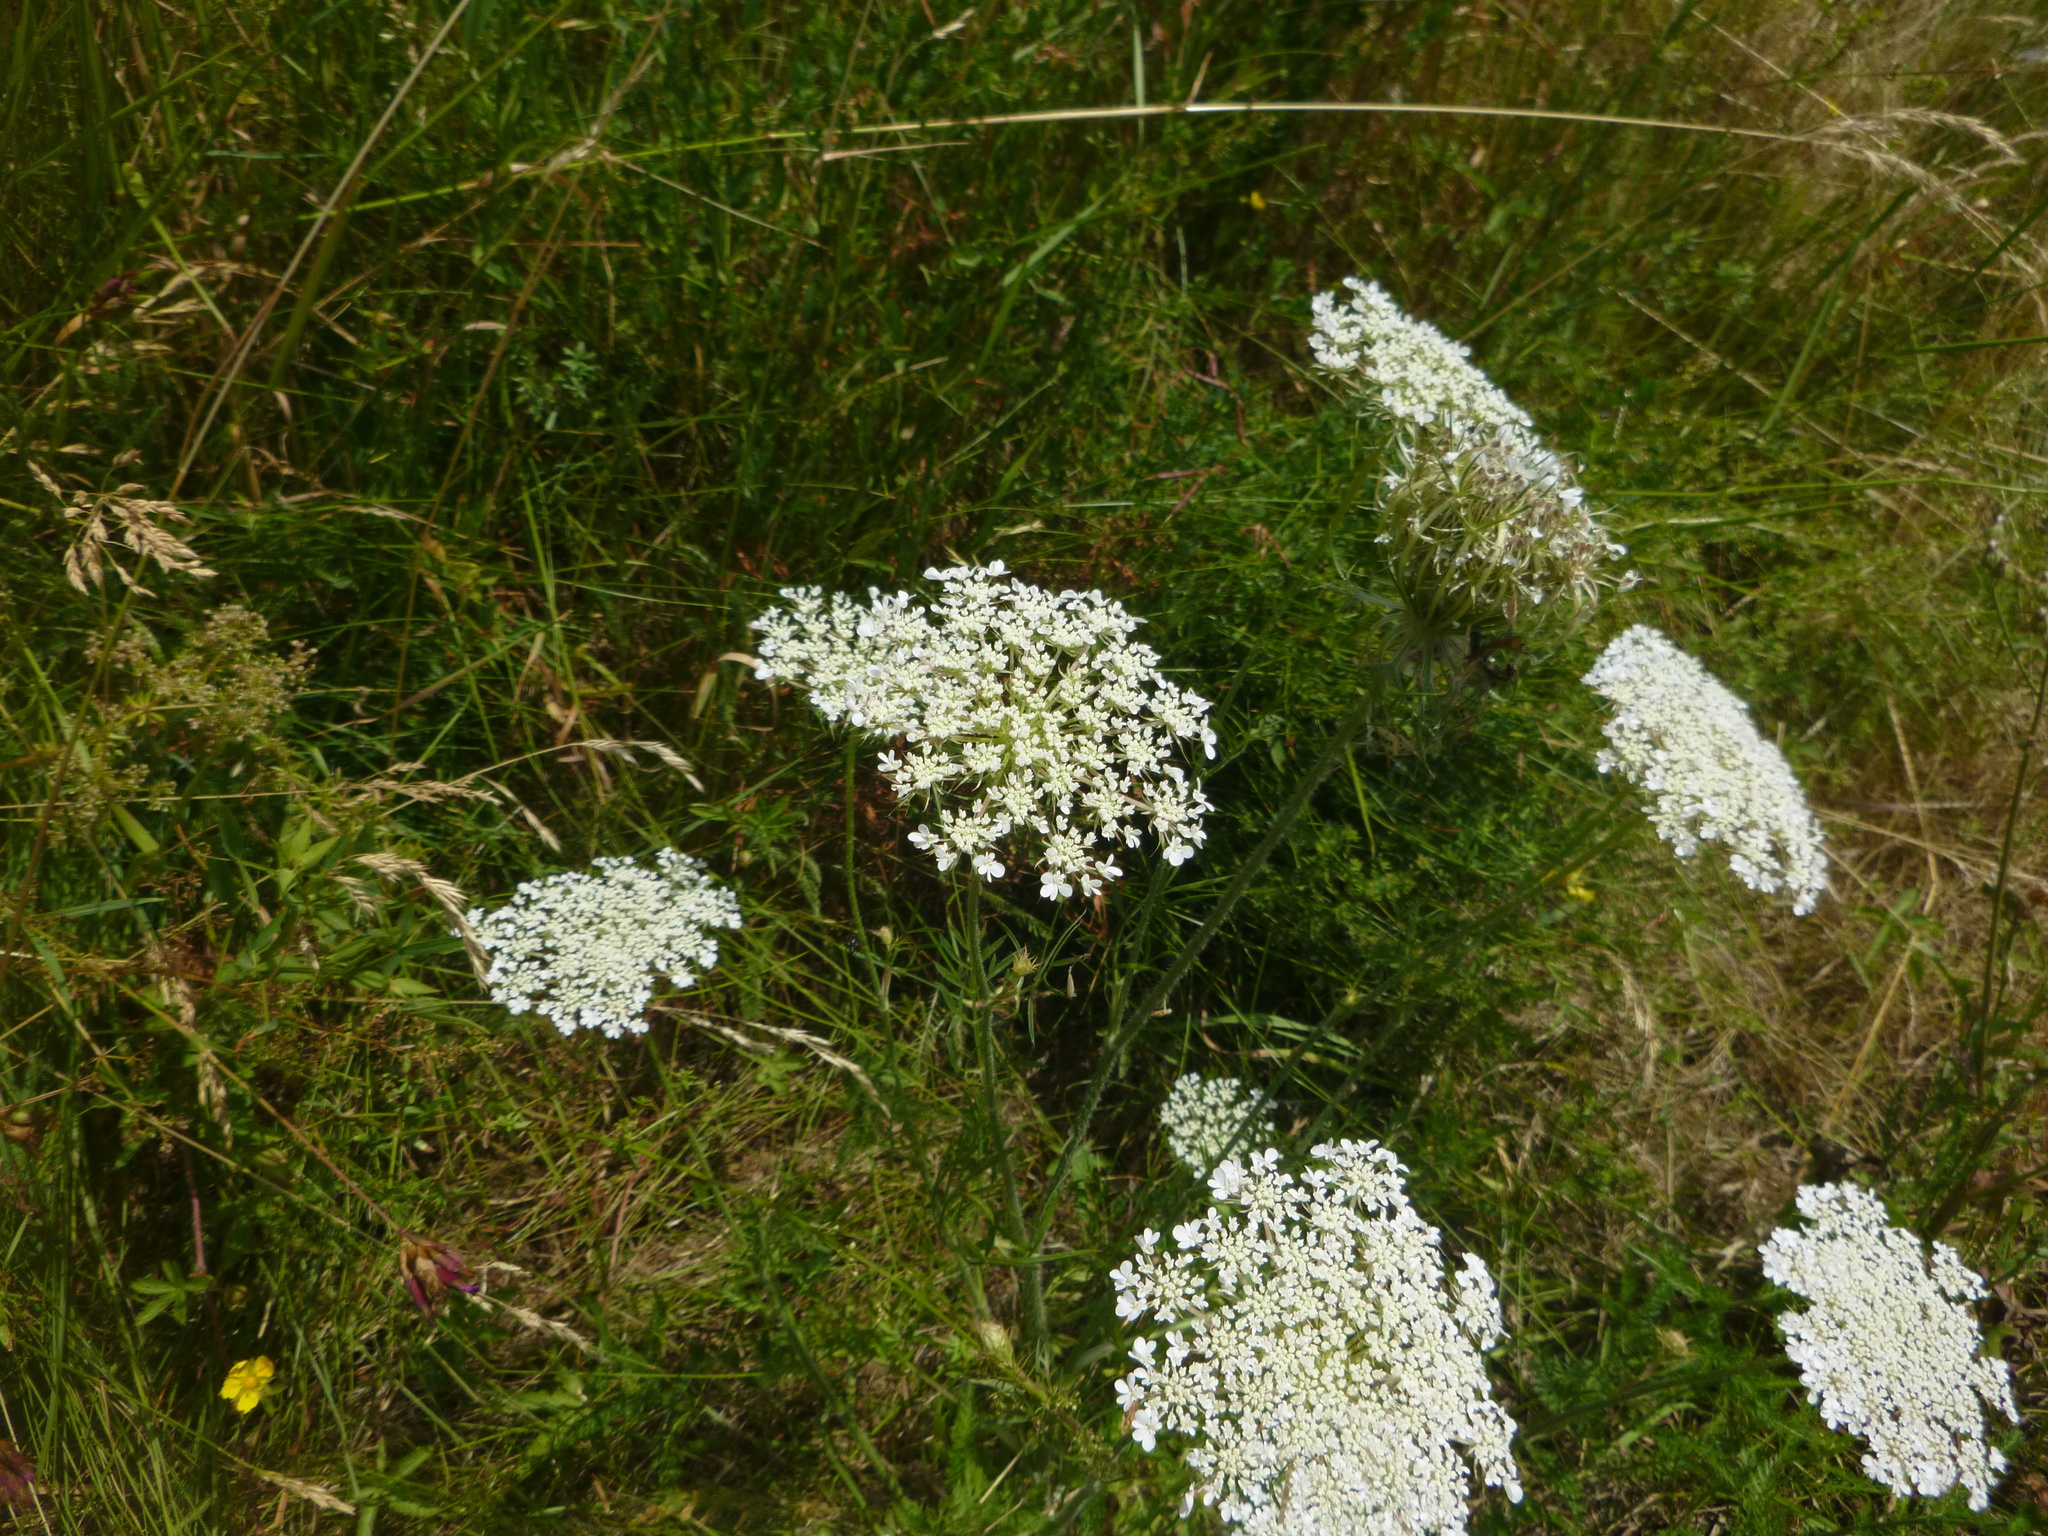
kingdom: Plantae
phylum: Tracheophyta
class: Magnoliopsida
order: Apiales
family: Apiaceae
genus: Daucus
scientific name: Daucus carota
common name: Wild carrot
